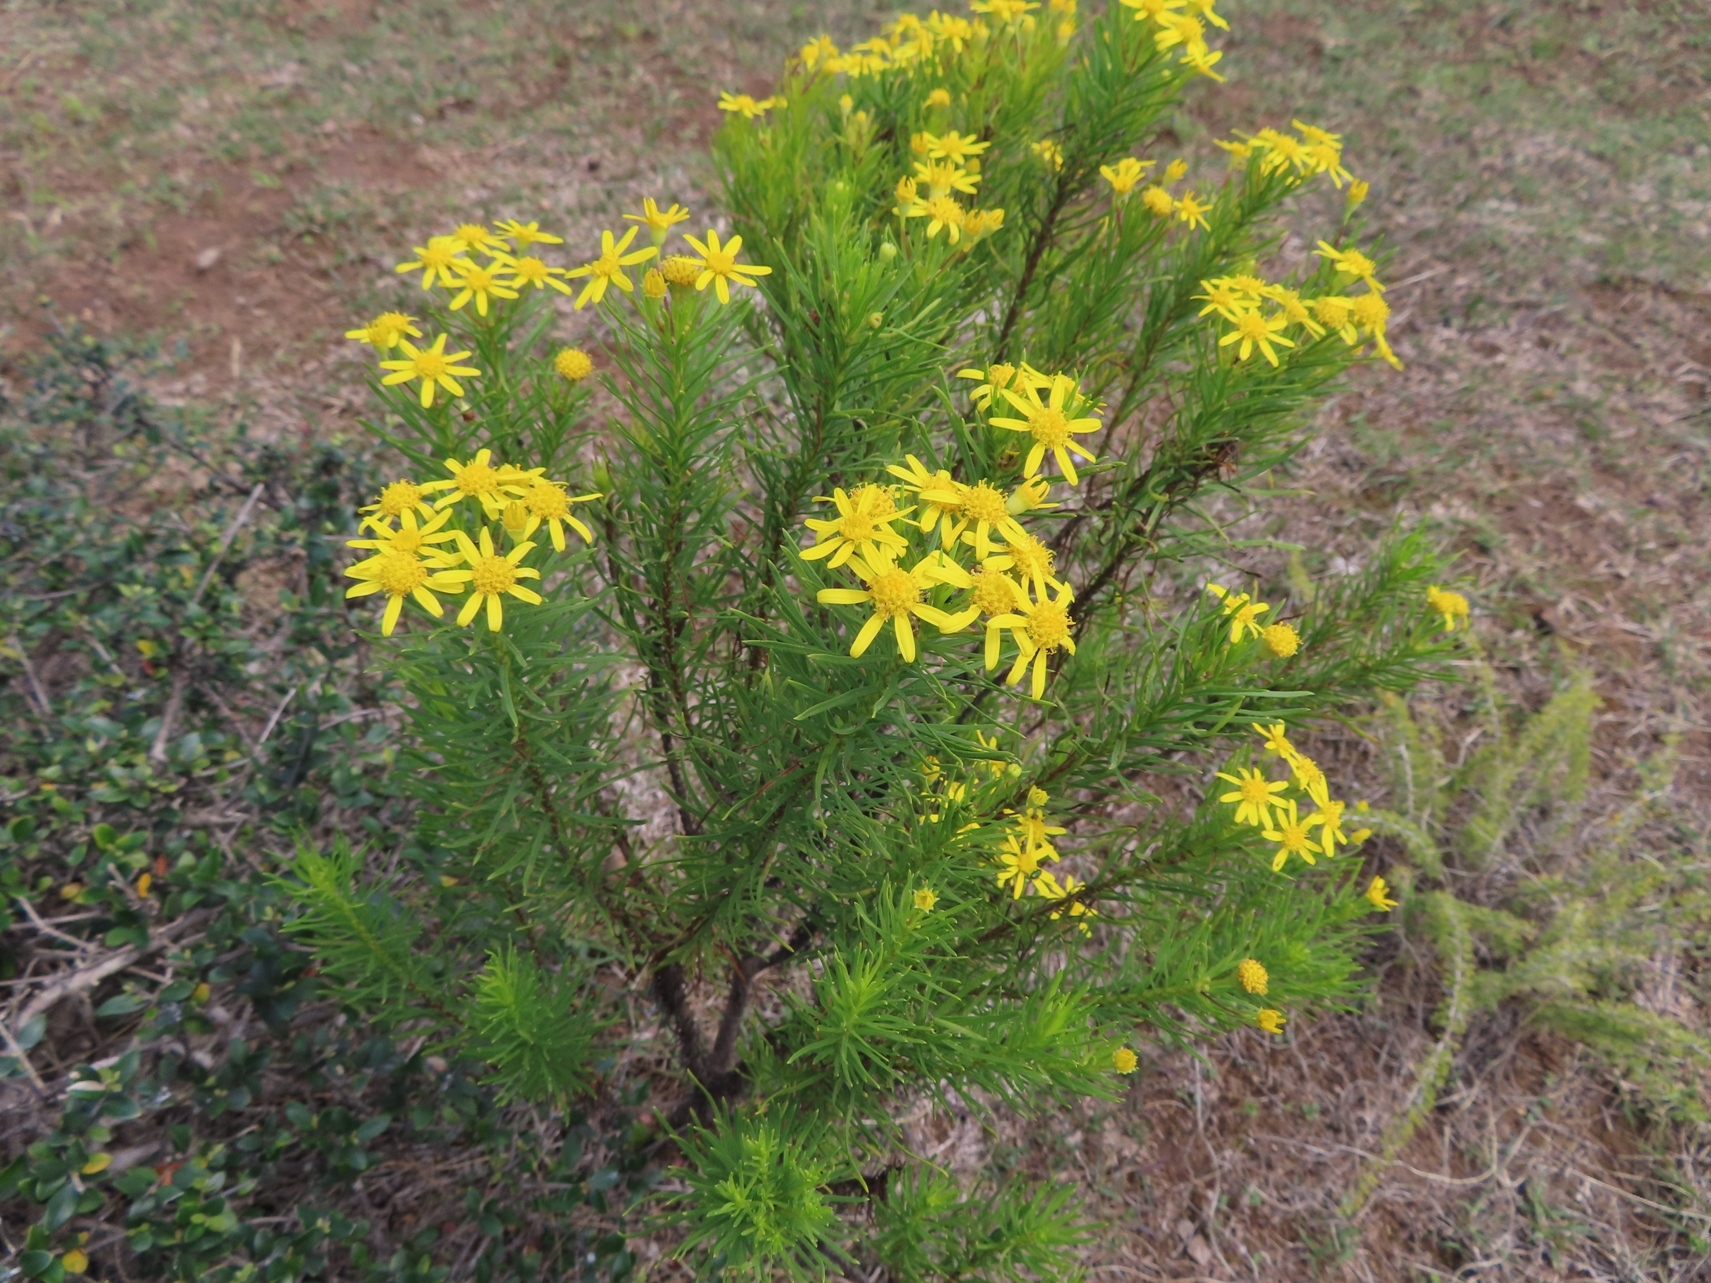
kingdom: Plantae
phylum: Tracheophyta
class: Magnoliopsida
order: Asterales
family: Asteraceae
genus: Euryops
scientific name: Euryops linearis
